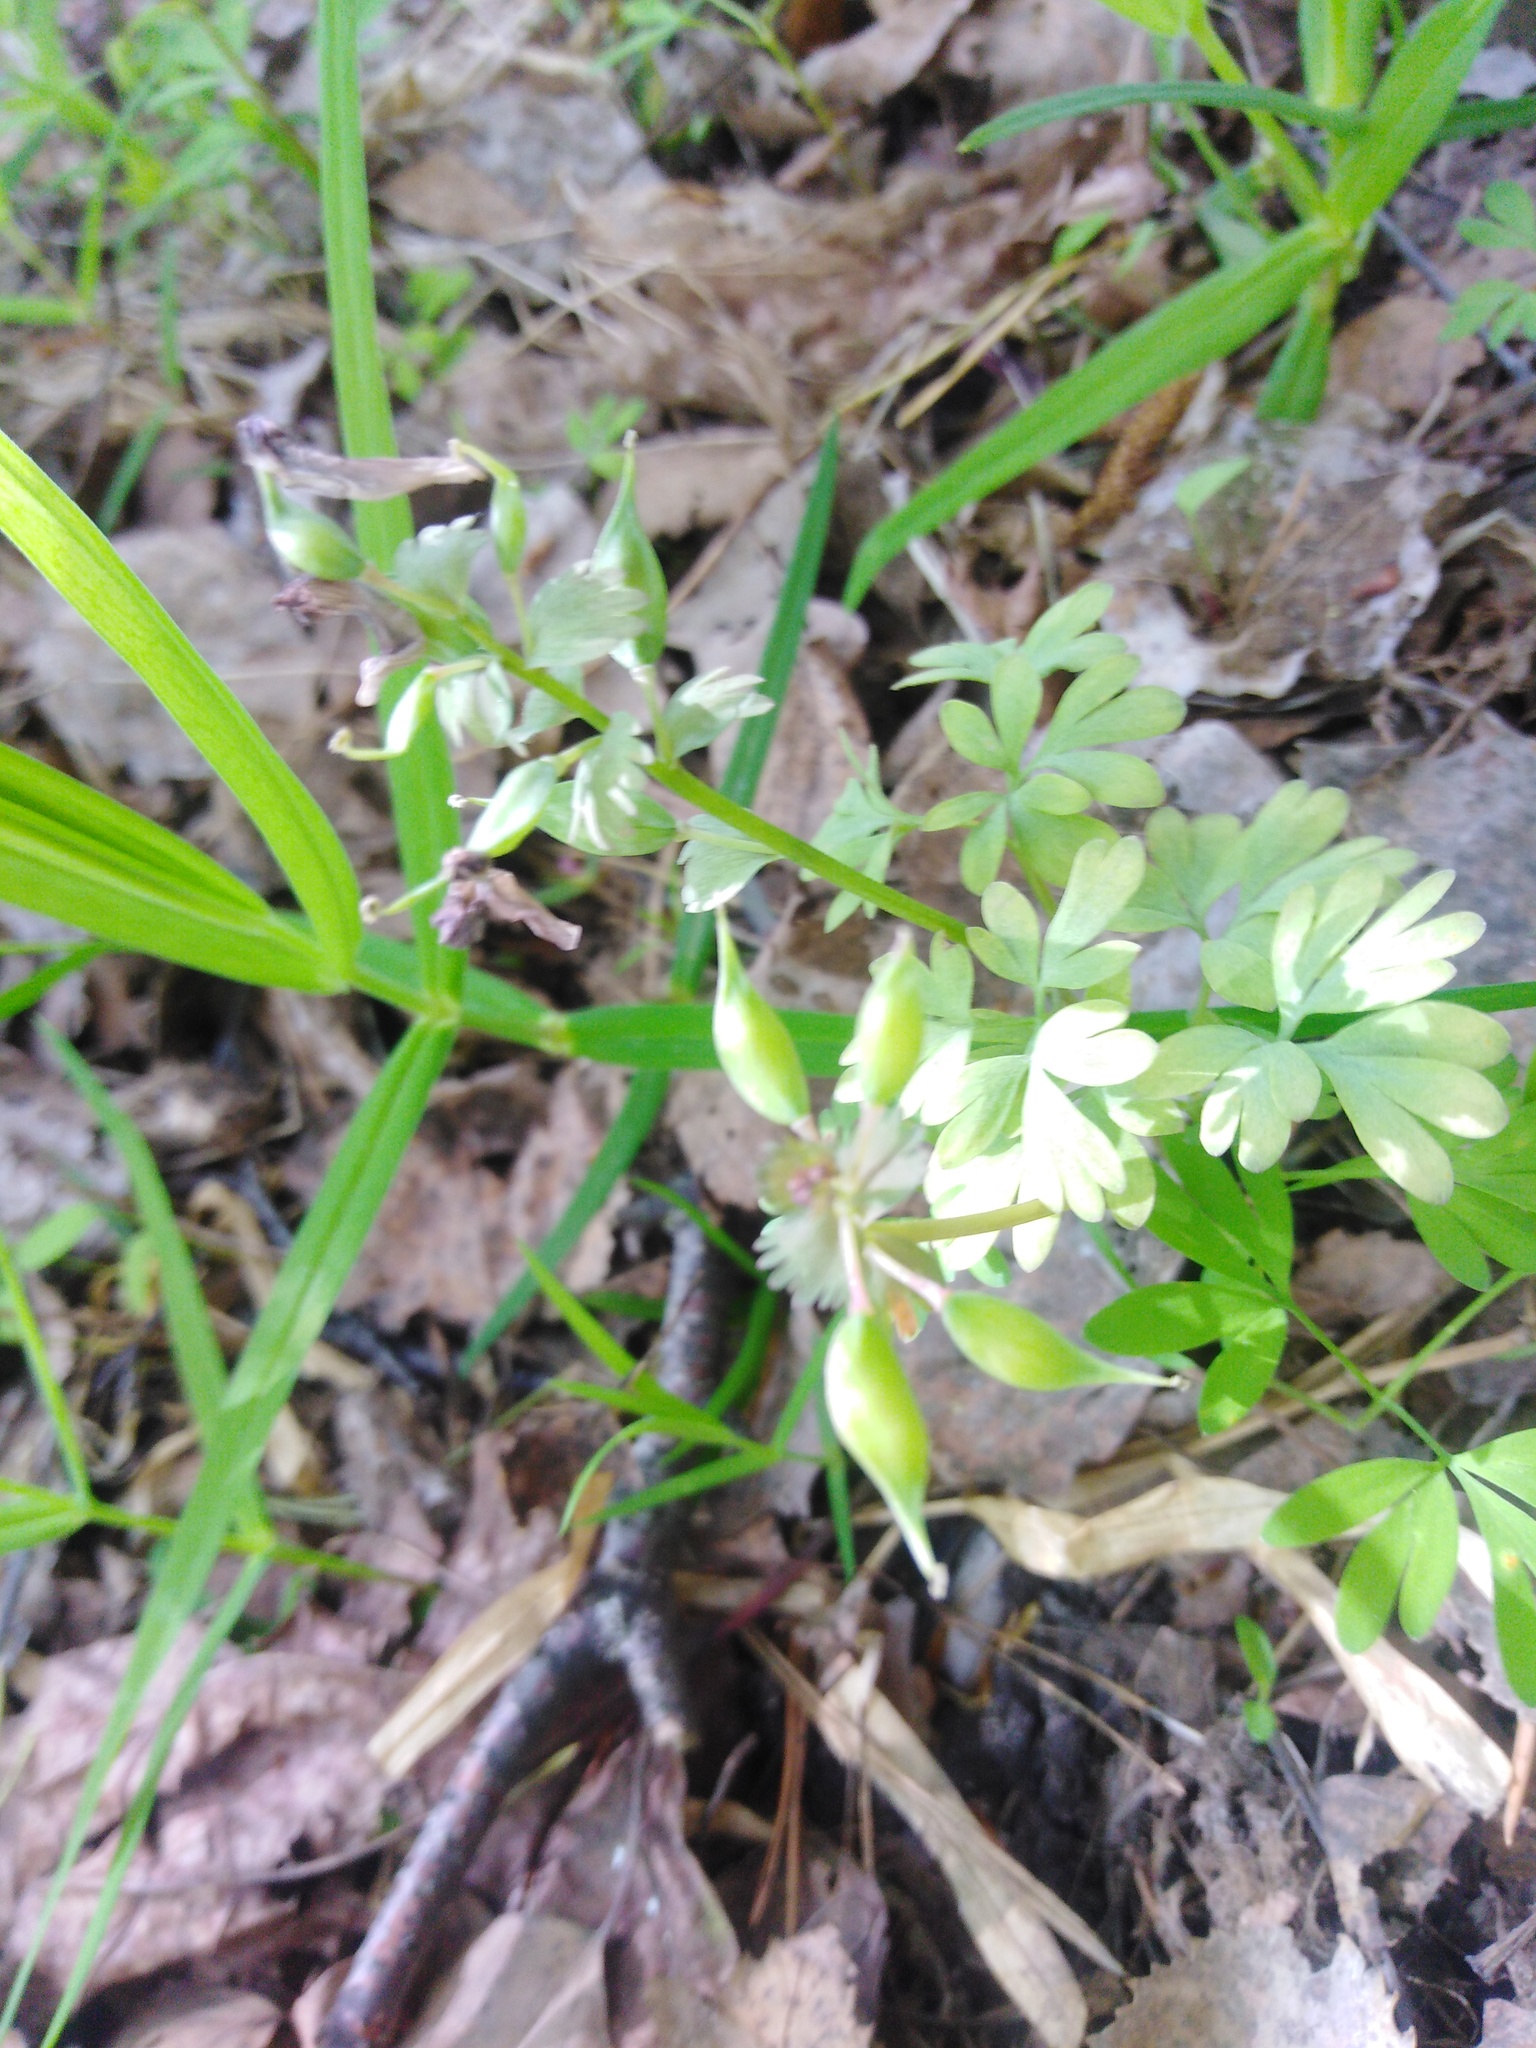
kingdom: Plantae
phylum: Tracheophyta
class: Magnoliopsida
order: Ranunculales
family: Papaveraceae
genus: Corydalis
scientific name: Corydalis solida
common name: Bird-in-a-bush
